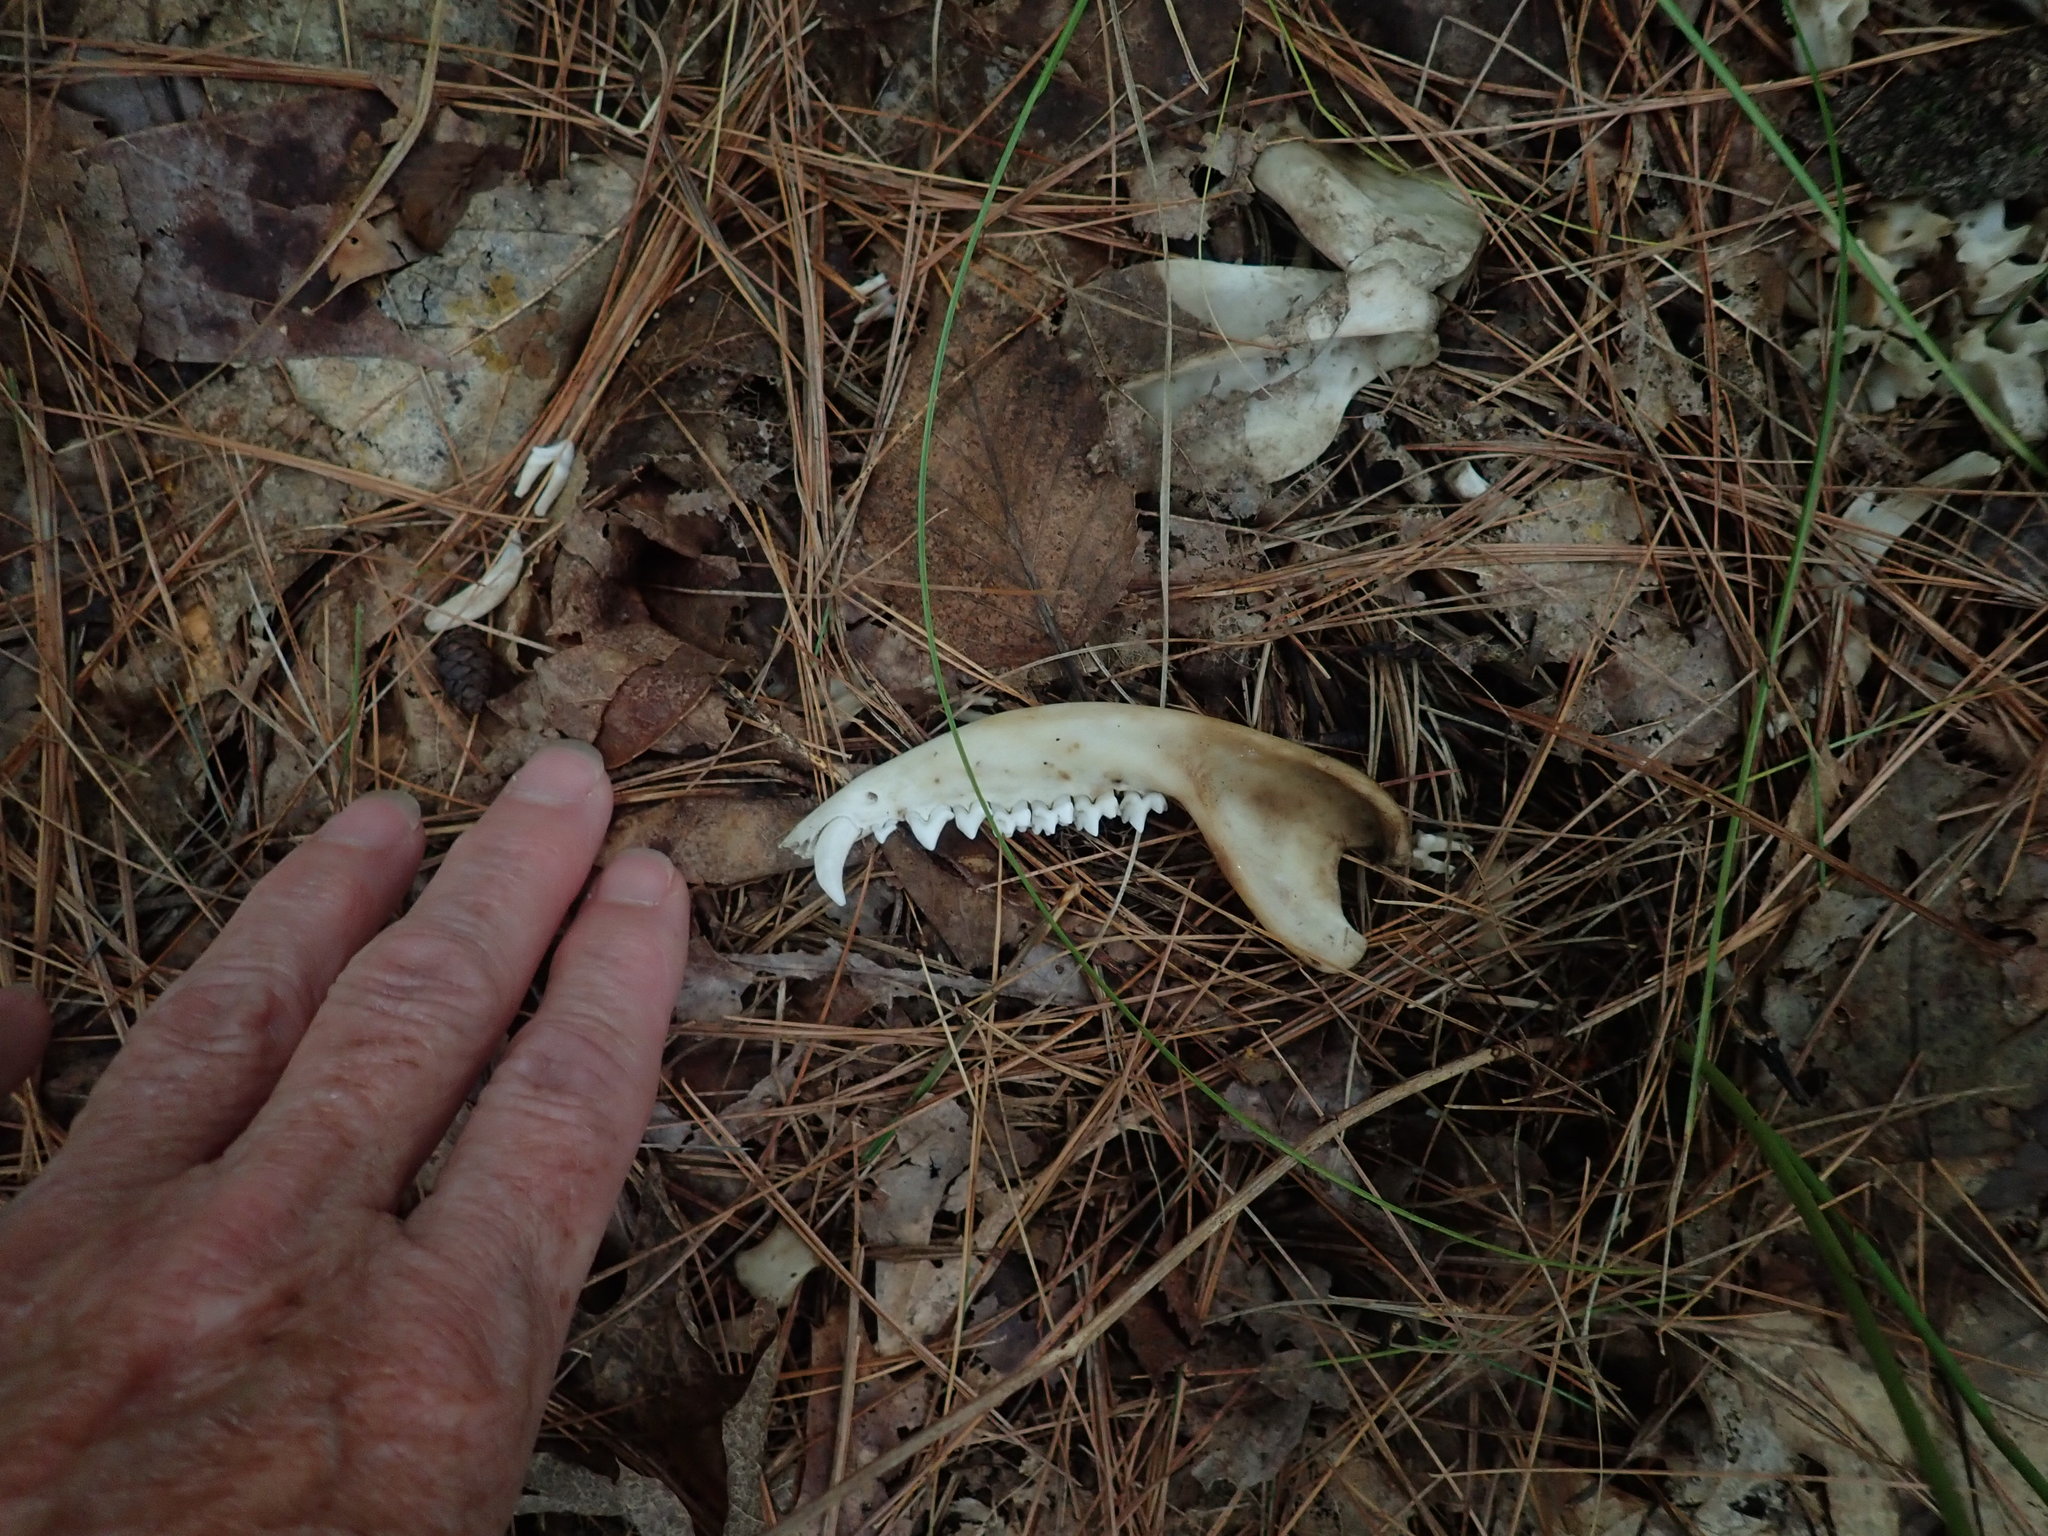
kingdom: Animalia
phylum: Chordata
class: Mammalia
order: Didelphimorphia
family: Didelphidae
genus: Didelphis
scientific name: Didelphis virginiana
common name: Virginia opossum
